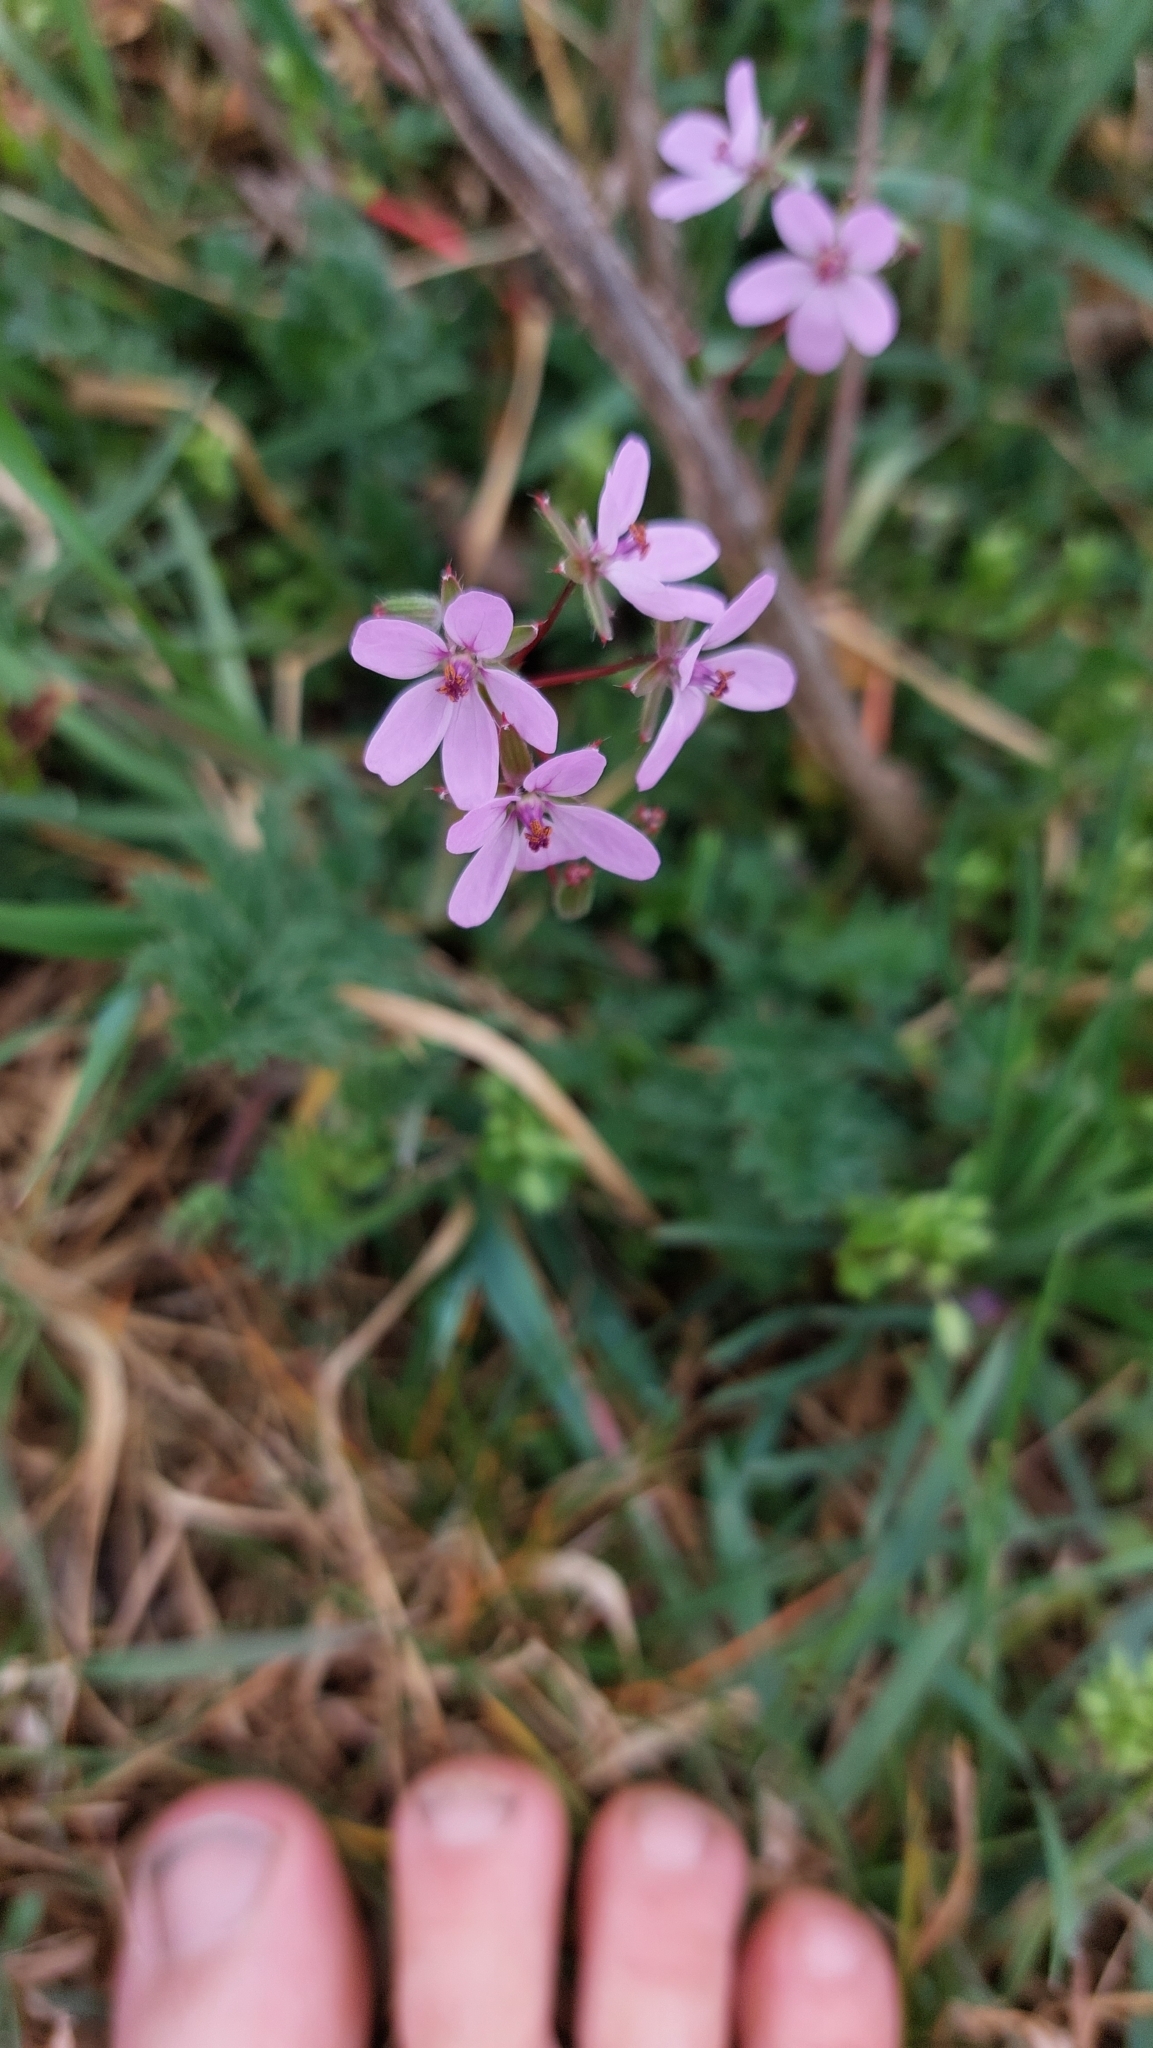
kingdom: Plantae
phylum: Tracheophyta
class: Magnoliopsida
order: Geraniales
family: Geraniaceae
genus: Erodium
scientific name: Erodium cicutarium
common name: Common stork's-bill
